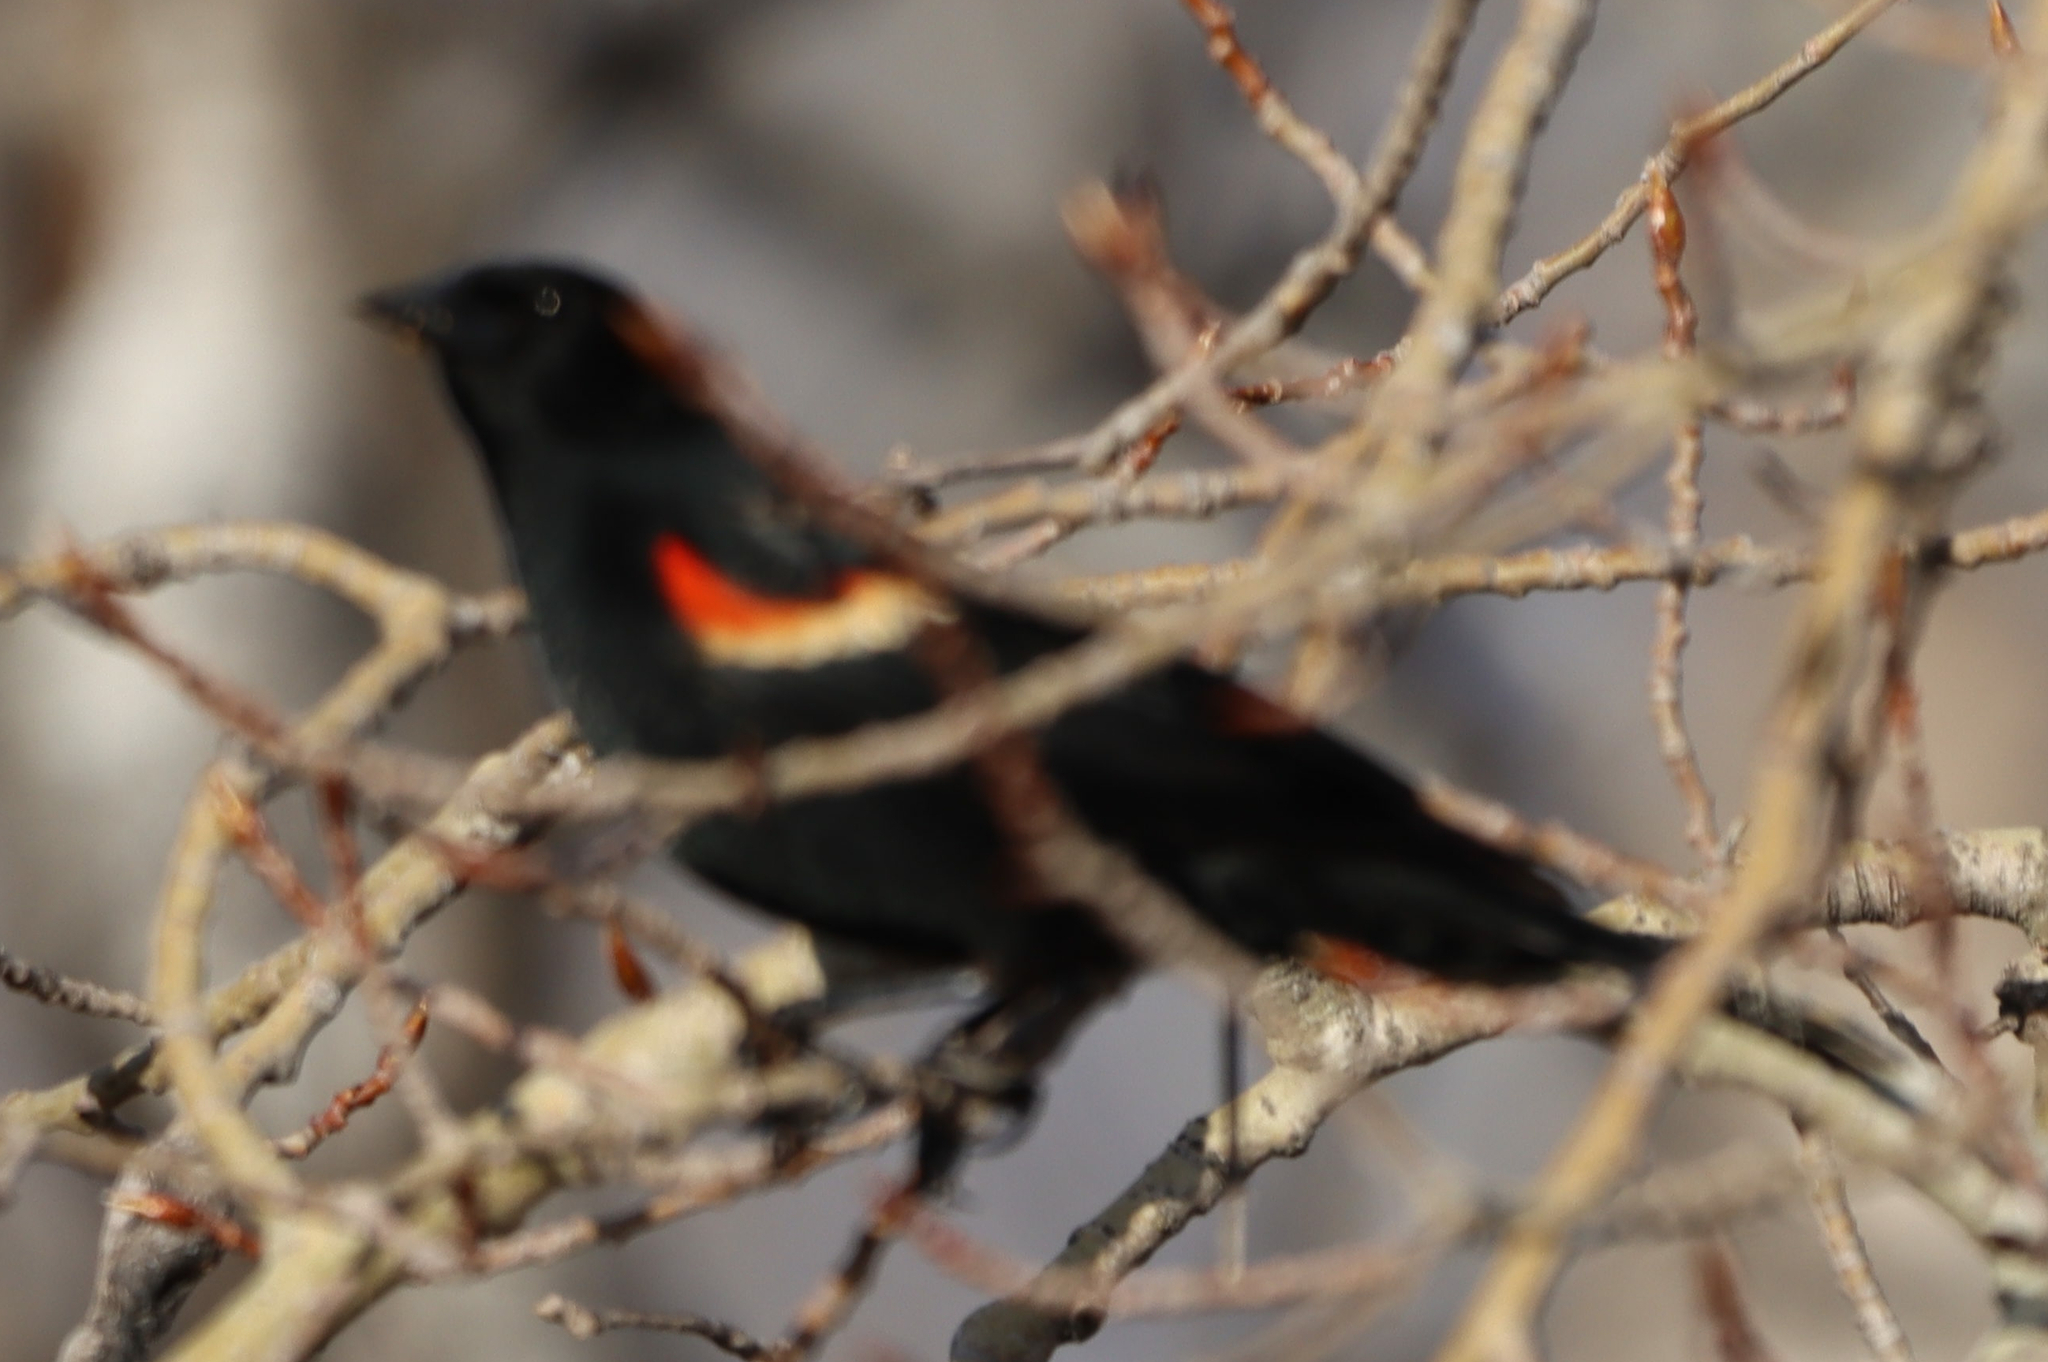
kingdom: Animalia
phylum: Chordata
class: Aves
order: Passeriformes
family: Icteridae
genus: Agelaius
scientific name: Agelaius phoeniceus
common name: Red-winged blackbird
